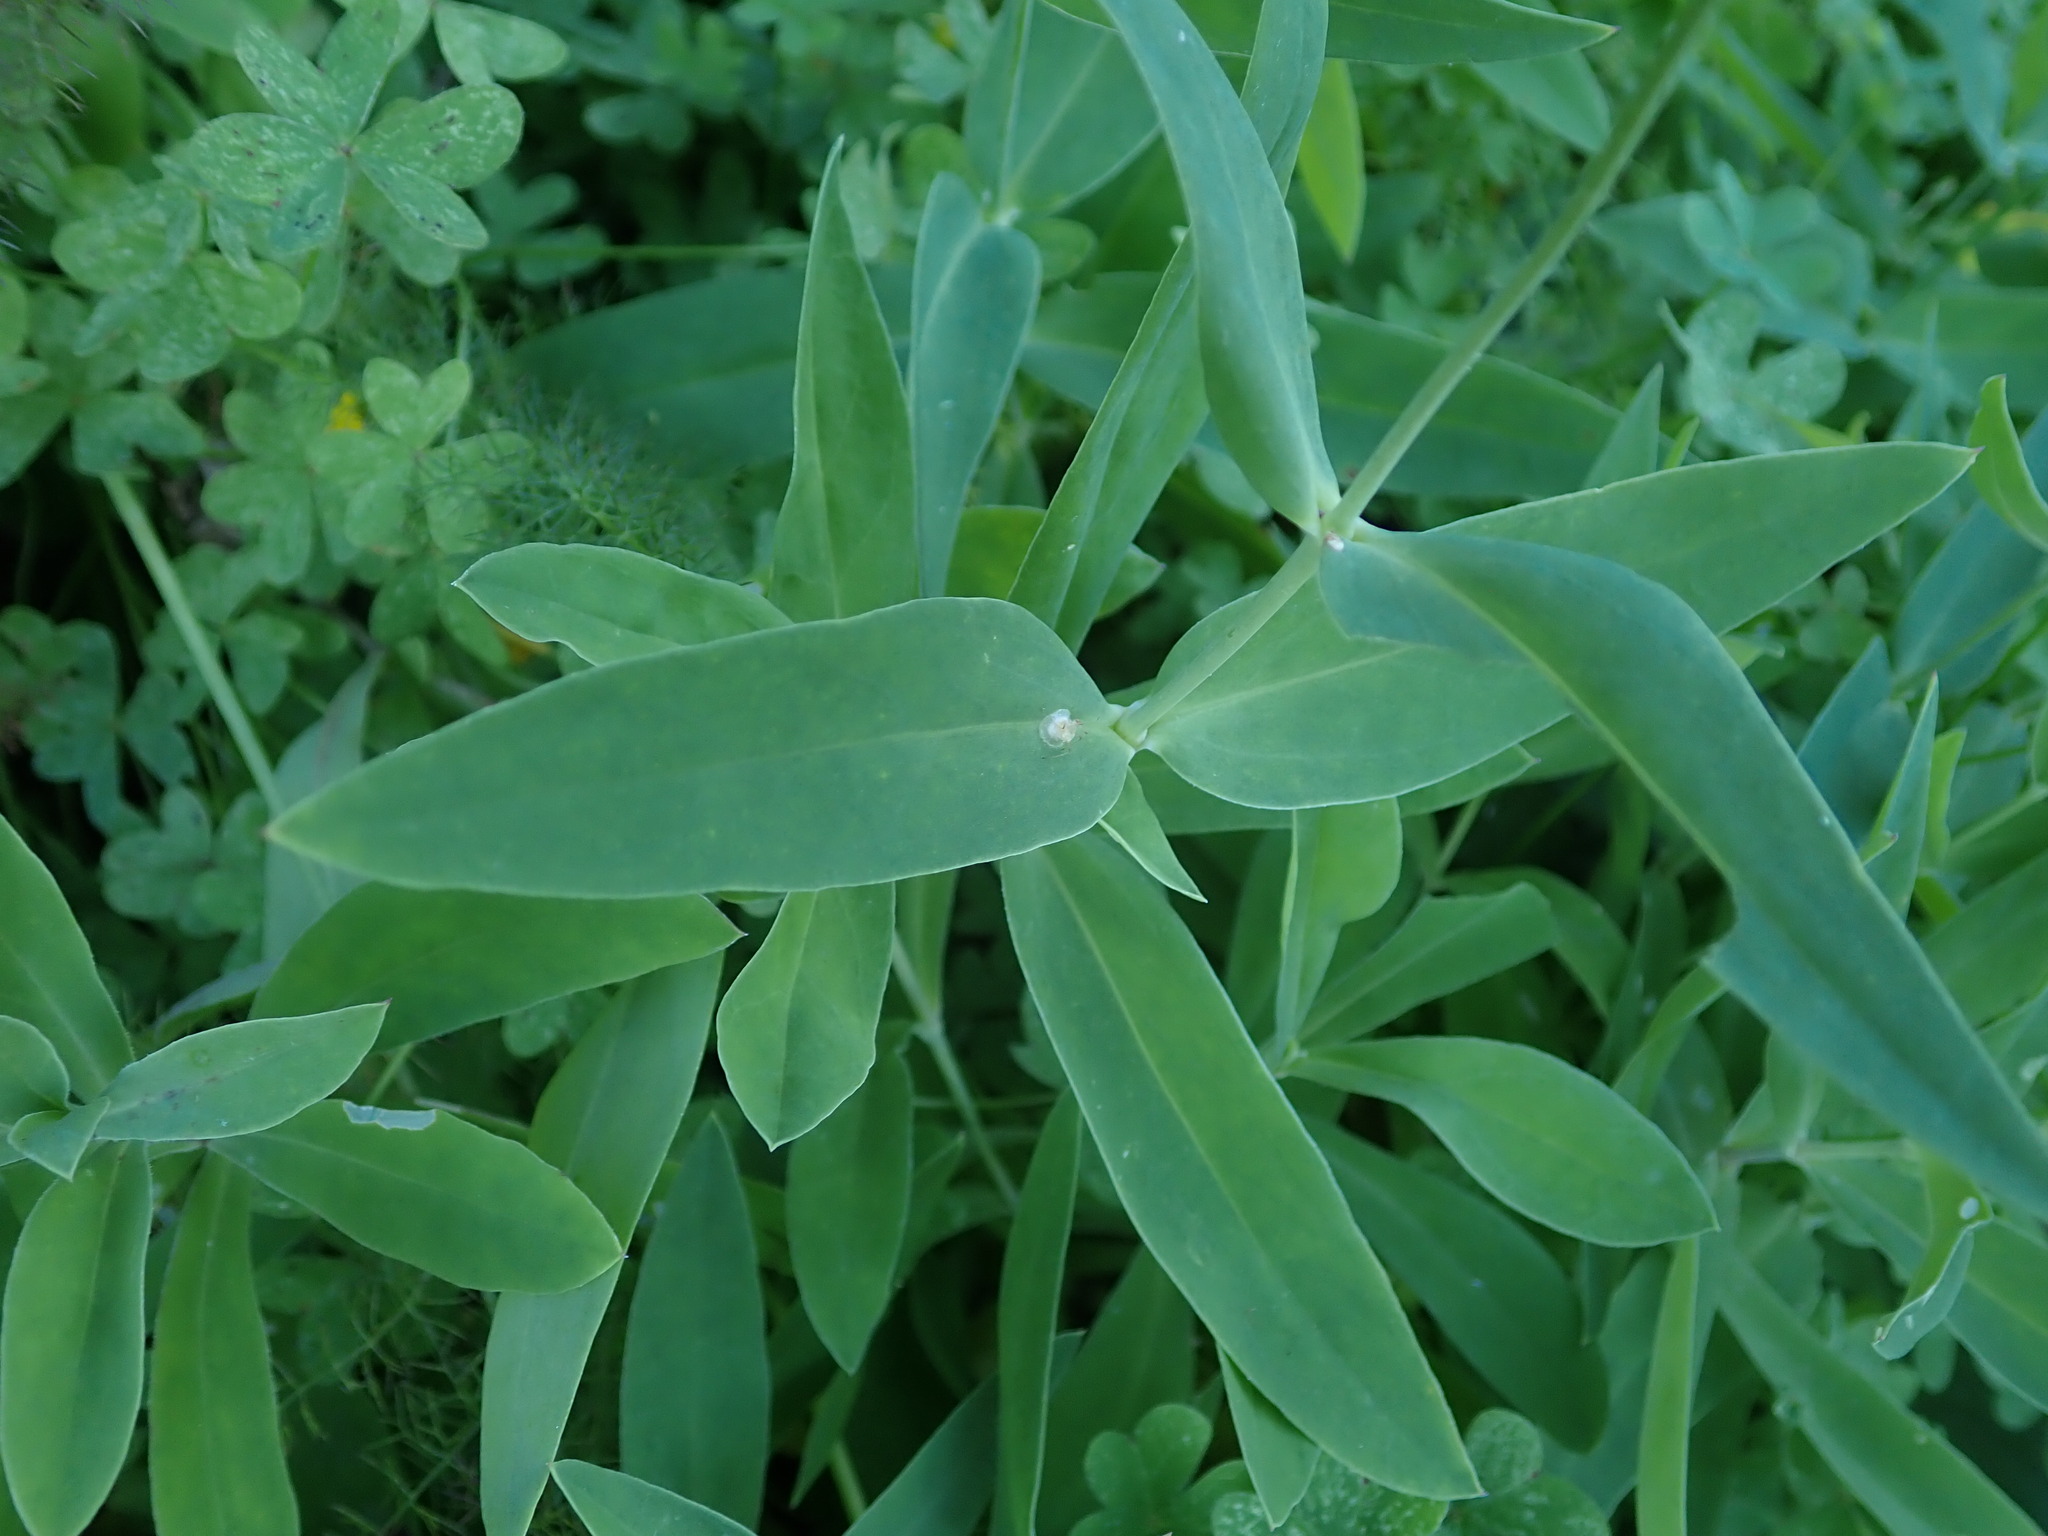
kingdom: Plantae
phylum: Tracheophyta
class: Magnoliopsida
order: Caryophyllales
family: Caryophyllaceae
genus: Silene
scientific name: Silene vulgaris
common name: Bladder campion
